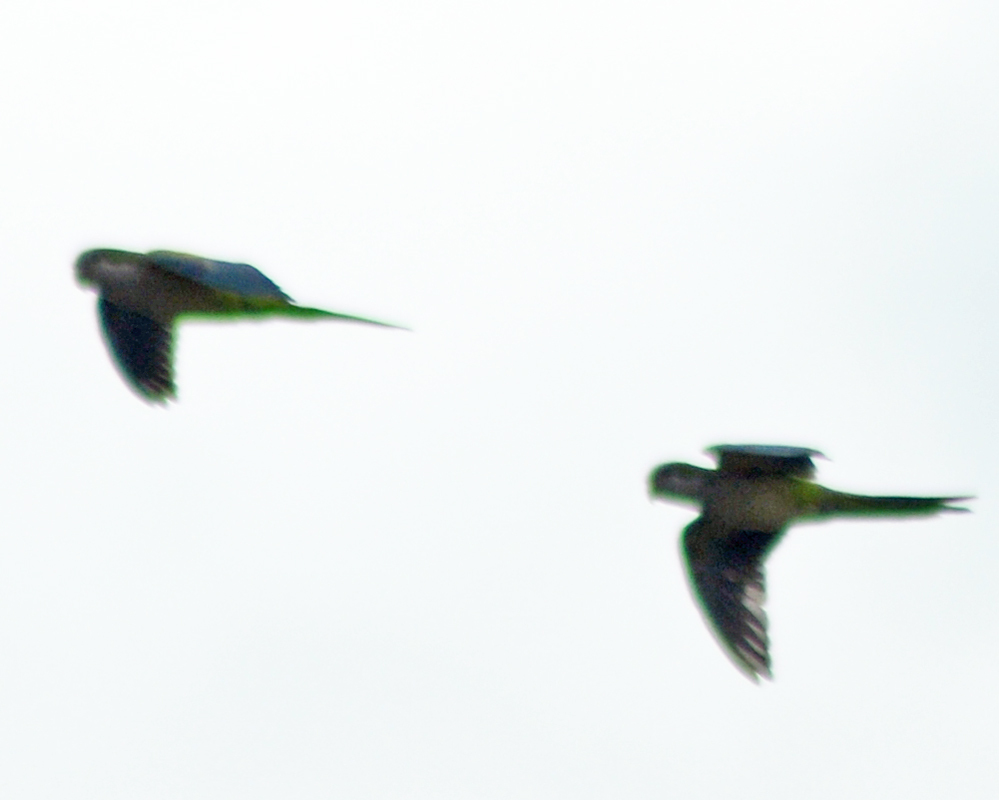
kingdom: Animalia
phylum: Chordata
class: Aves
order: Psittaciformes
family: Psittacidae
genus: Myiopsitta
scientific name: Myiopsitta monachus
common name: Monk parakeet
